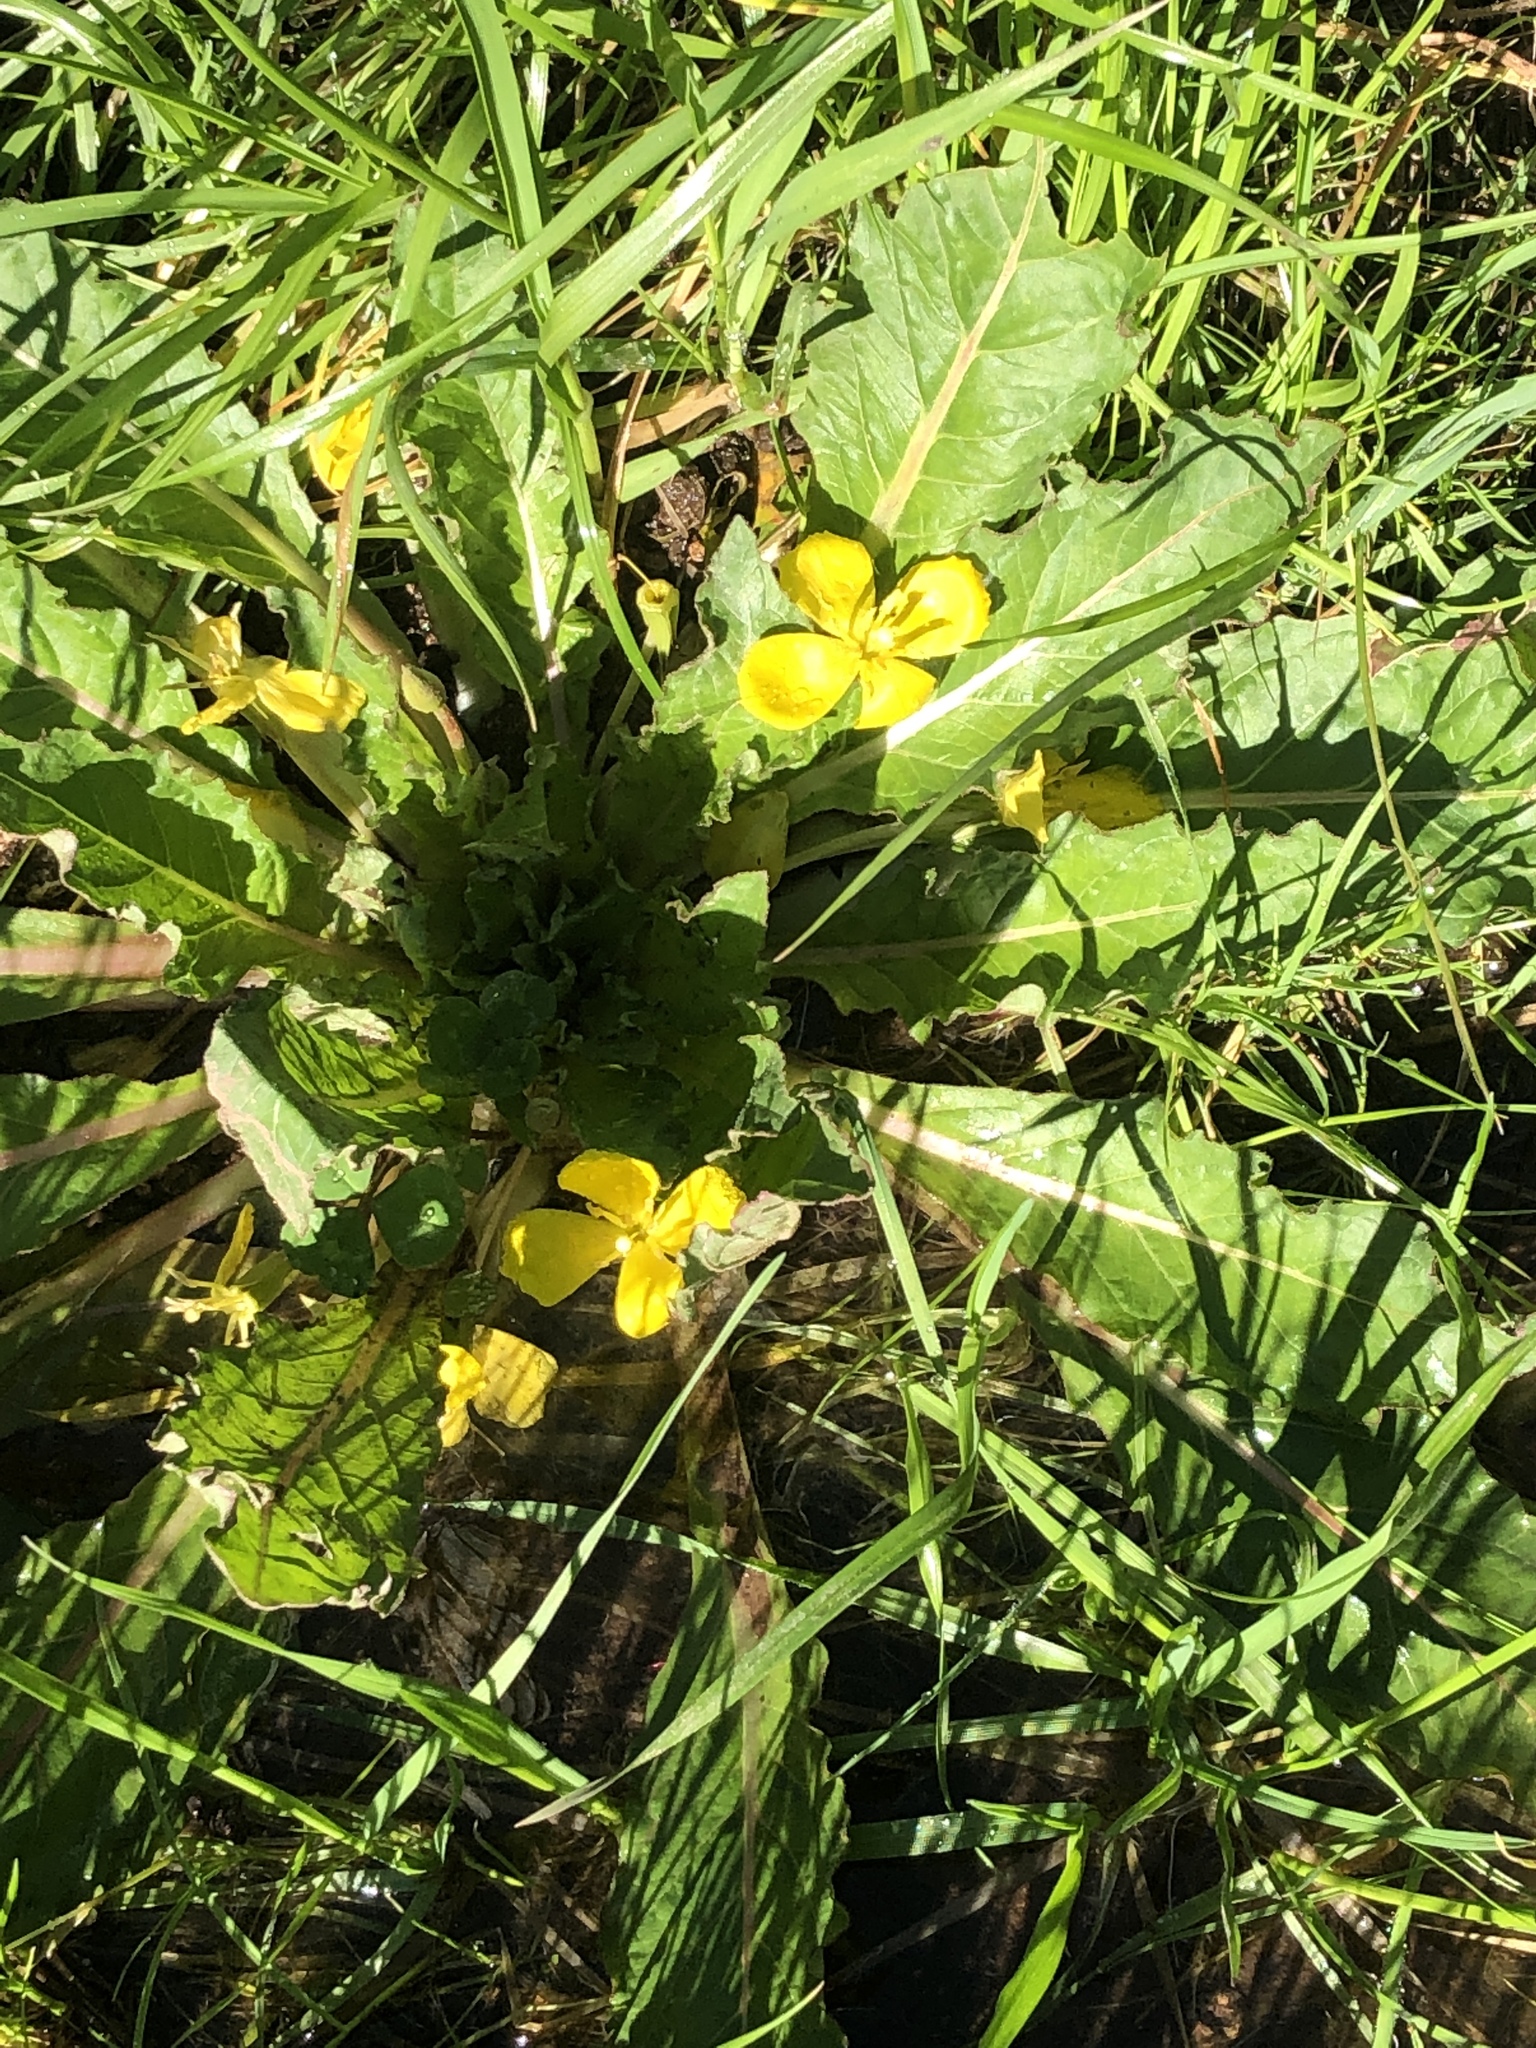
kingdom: Plantae
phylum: Tracheophyta
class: Magnoliopsida
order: Myrtales
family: Onagraceae
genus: Taraxia
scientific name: Taraxia ovata
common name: Goldeneggs
